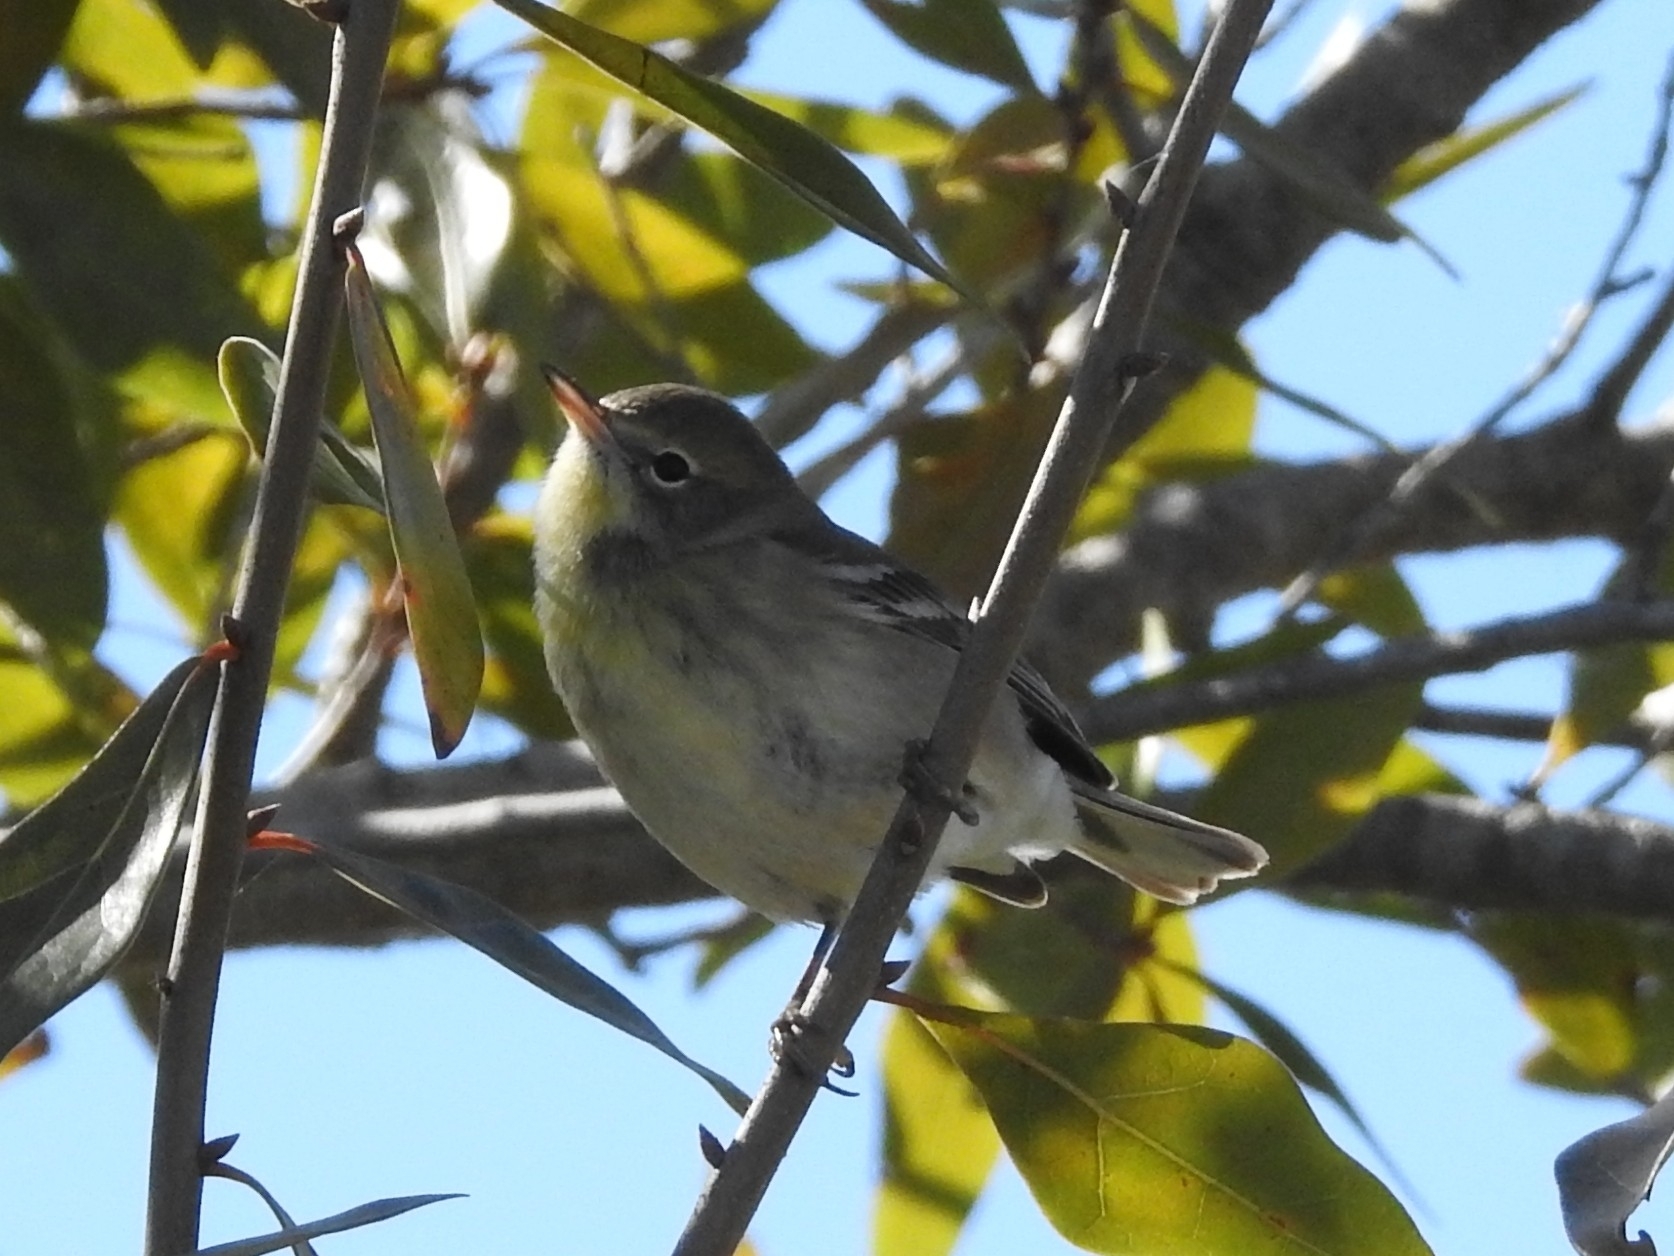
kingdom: Animalia
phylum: Chordata
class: Aves
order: Passeriformes
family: Parulidae
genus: Setophaga
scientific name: Setophaga pinus
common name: Pine warbler
